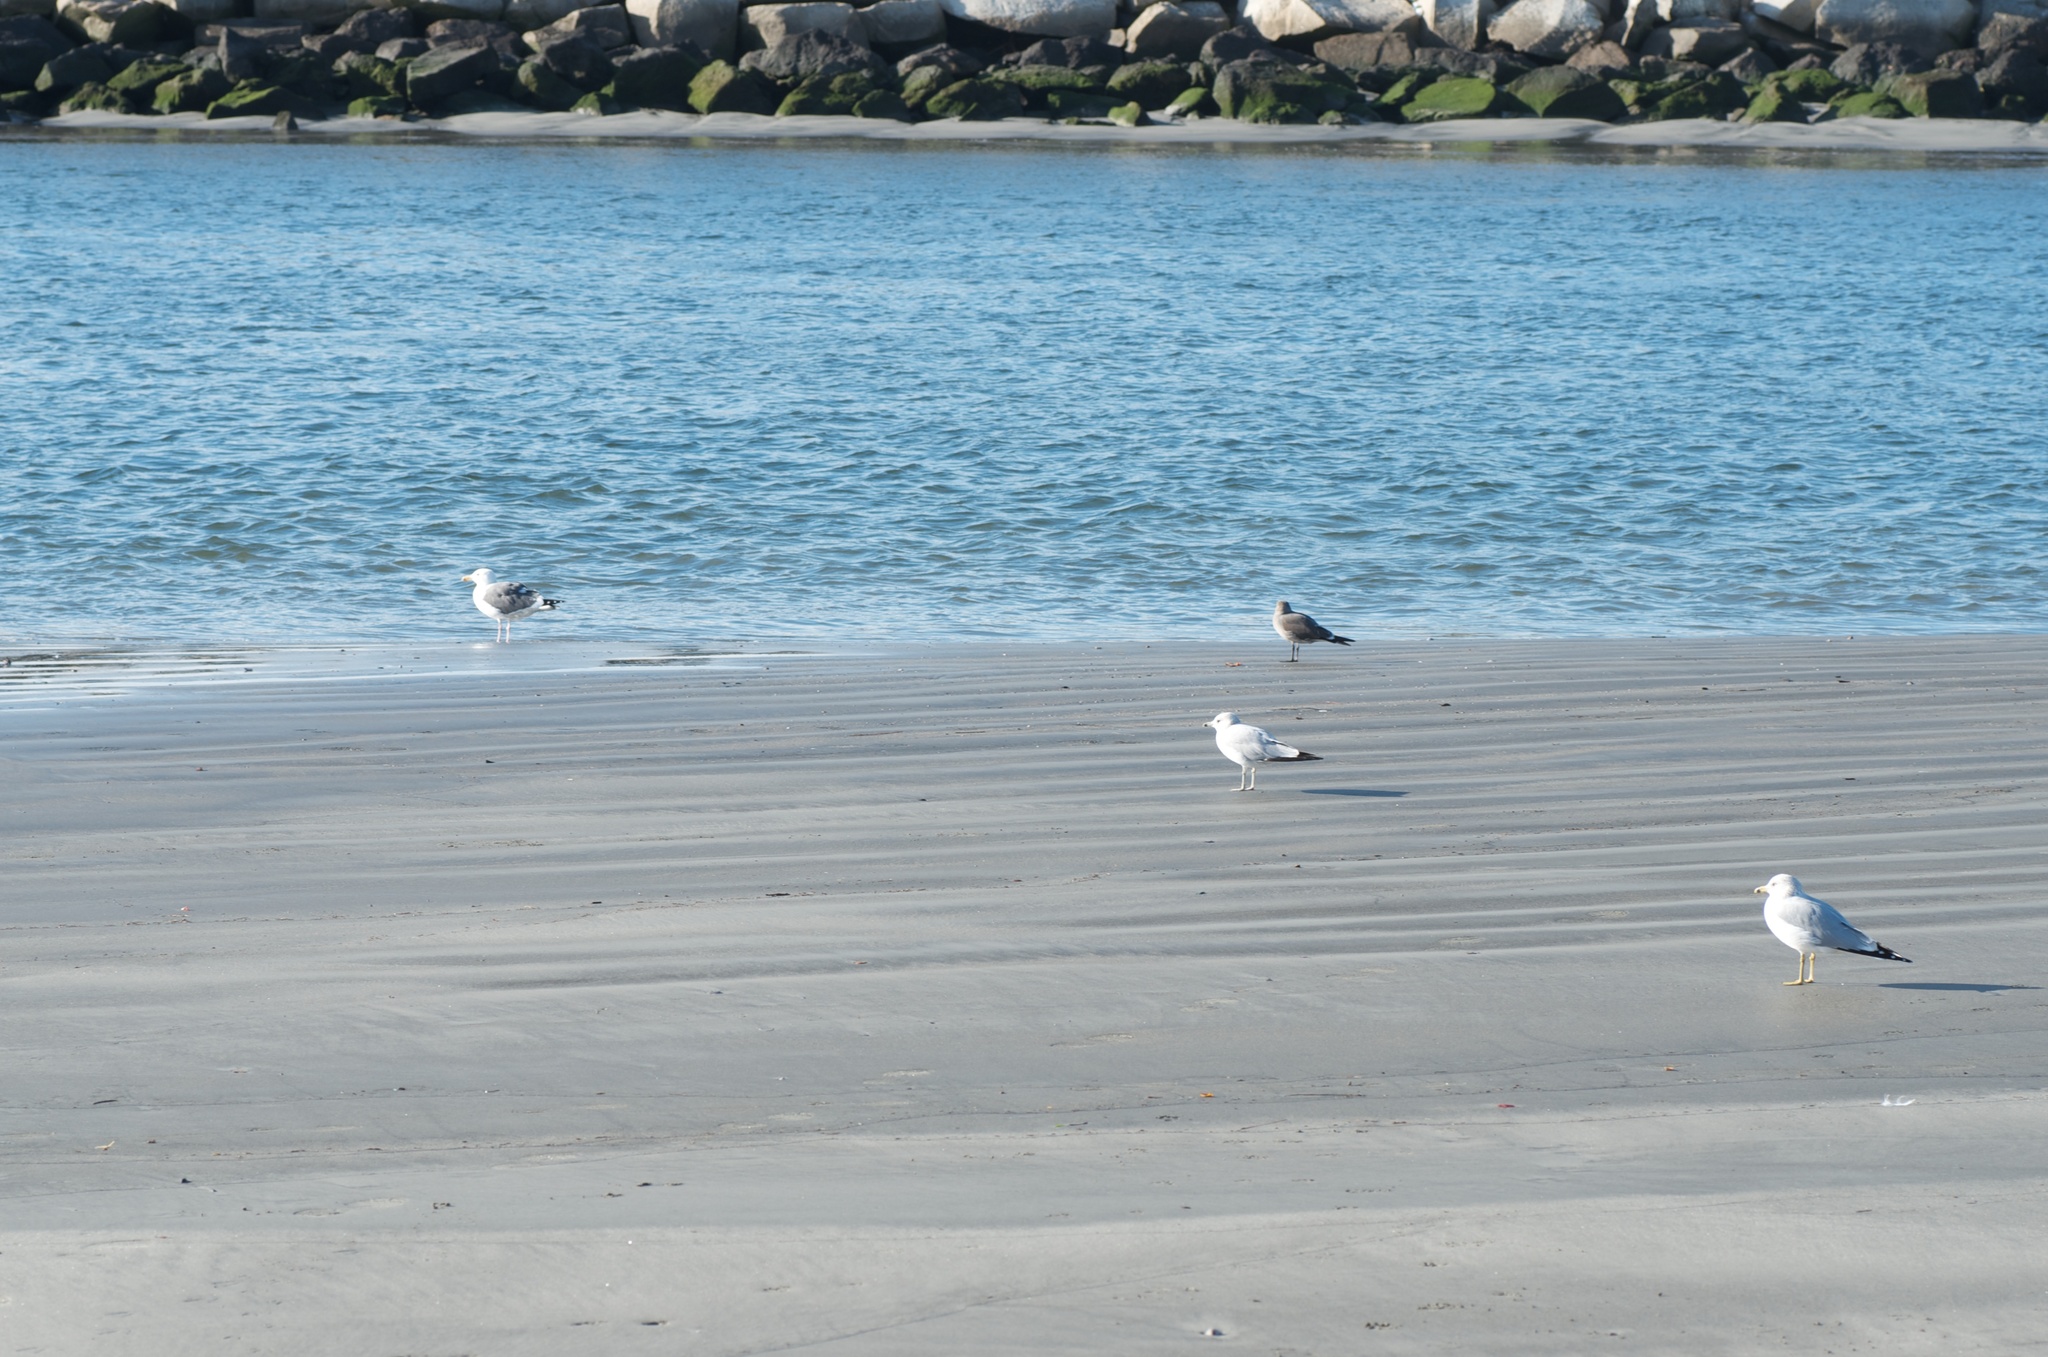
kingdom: Animalia
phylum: Chordata
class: Aves
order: Charadriiformes
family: Laridae
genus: Larus
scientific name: Larus delawarensis
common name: Ring-billed gull
